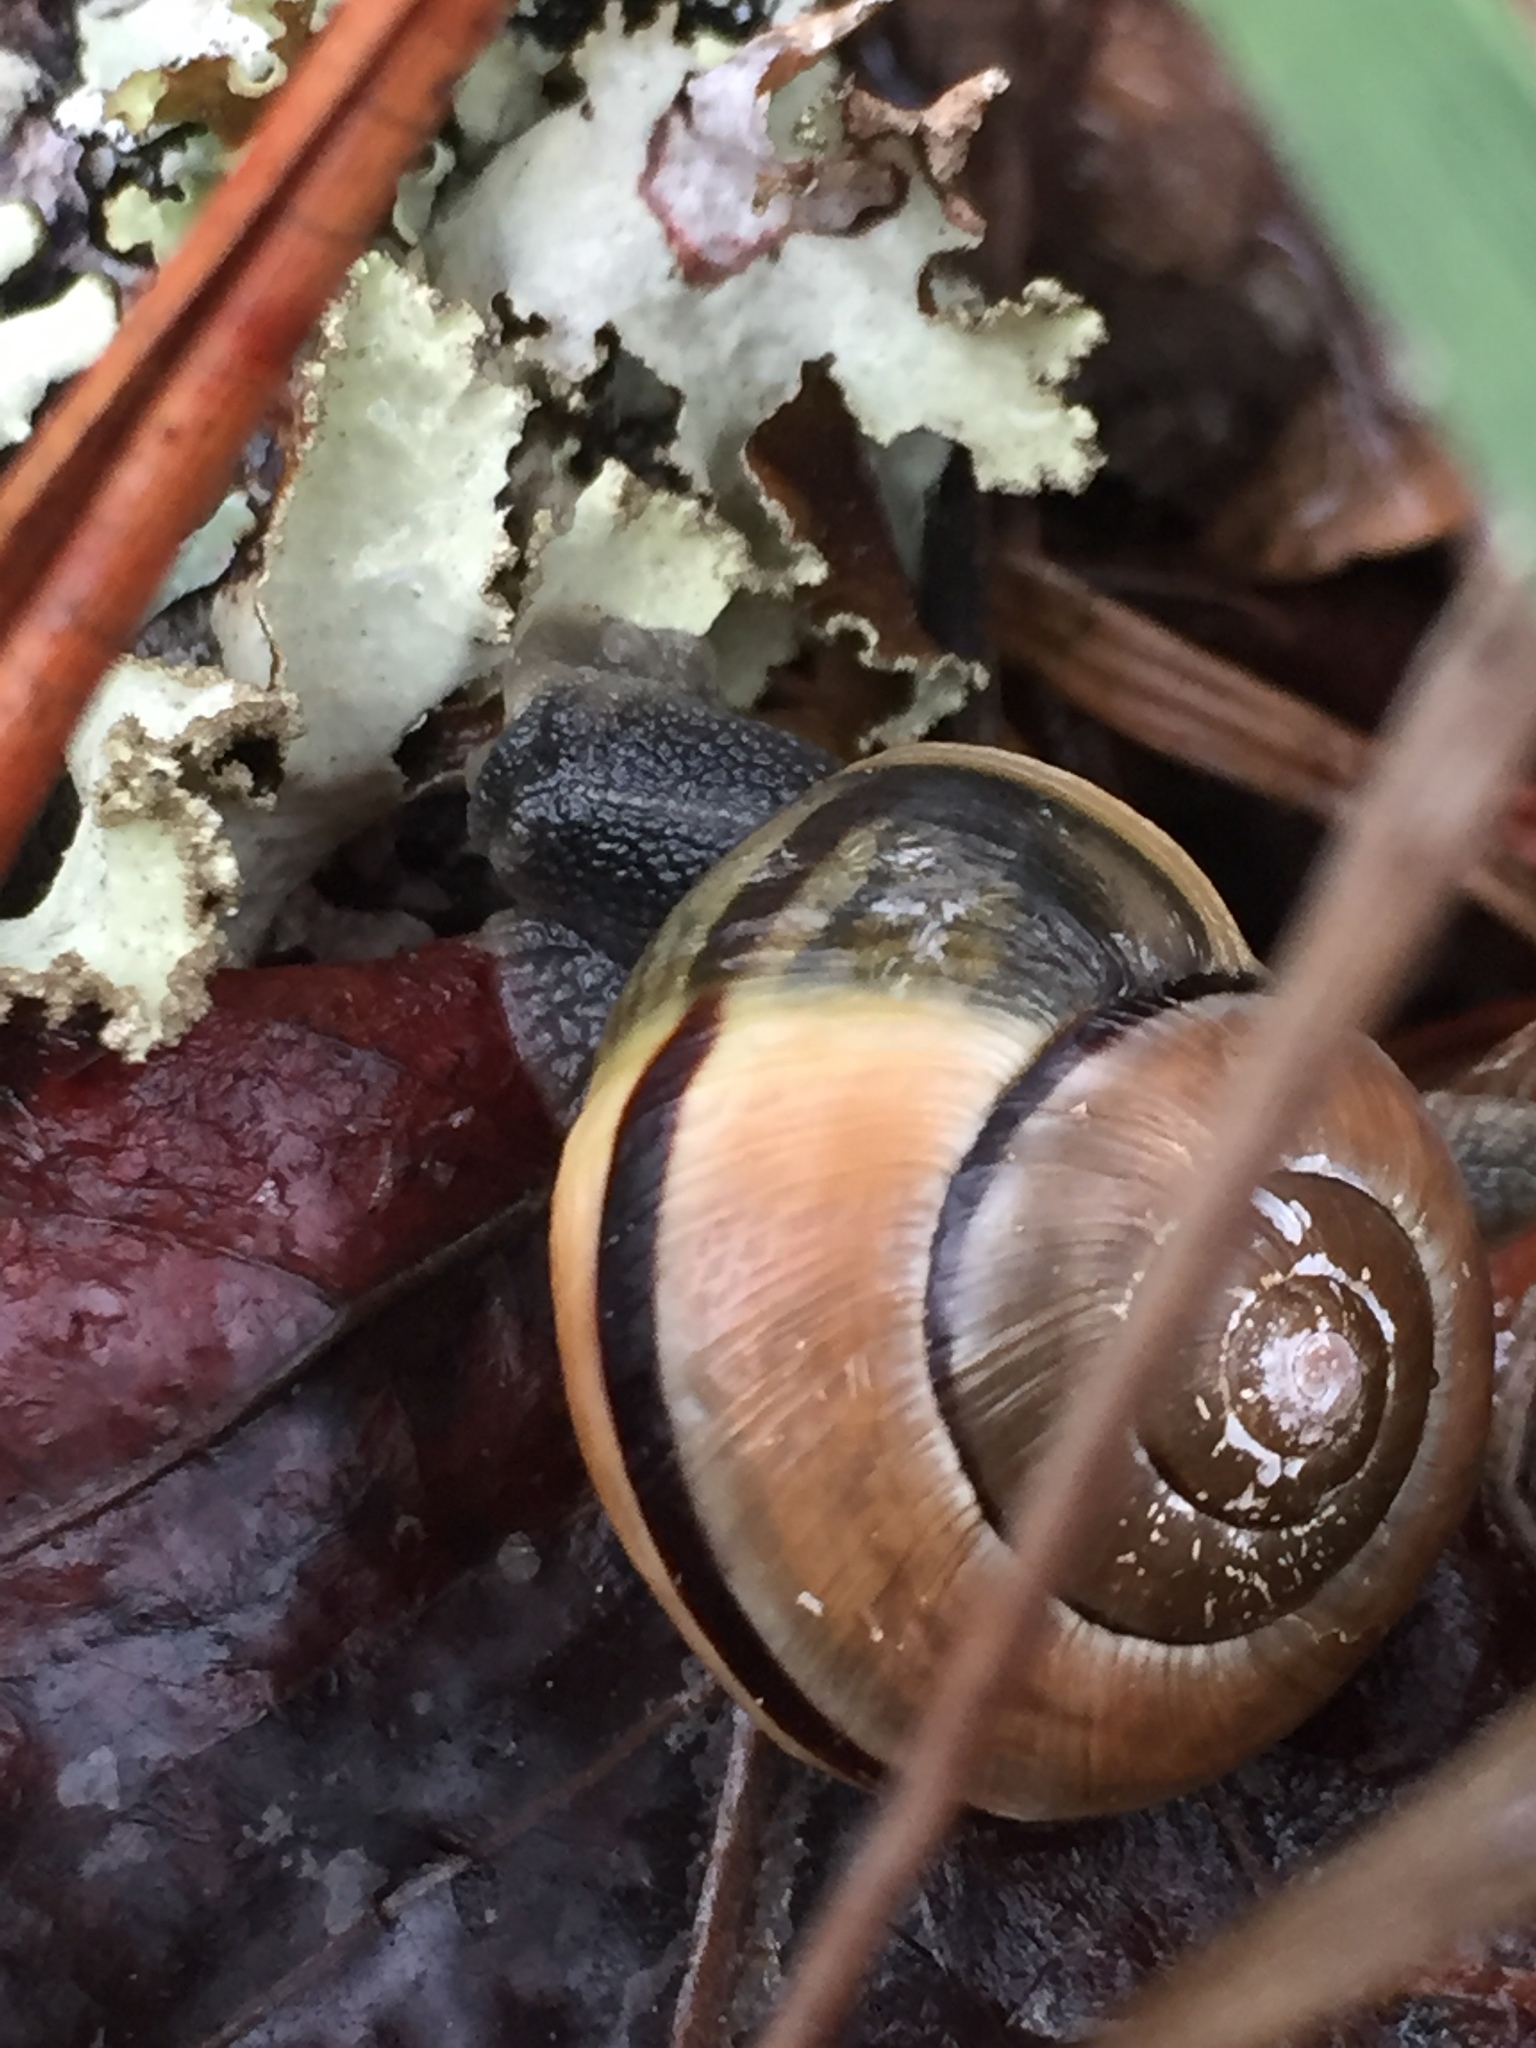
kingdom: Animalia
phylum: Mollusca
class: Gastropoda
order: Stylommatophora
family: Helicidae
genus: Cepaea
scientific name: Cepaea nemoralis
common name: Grovesnail
